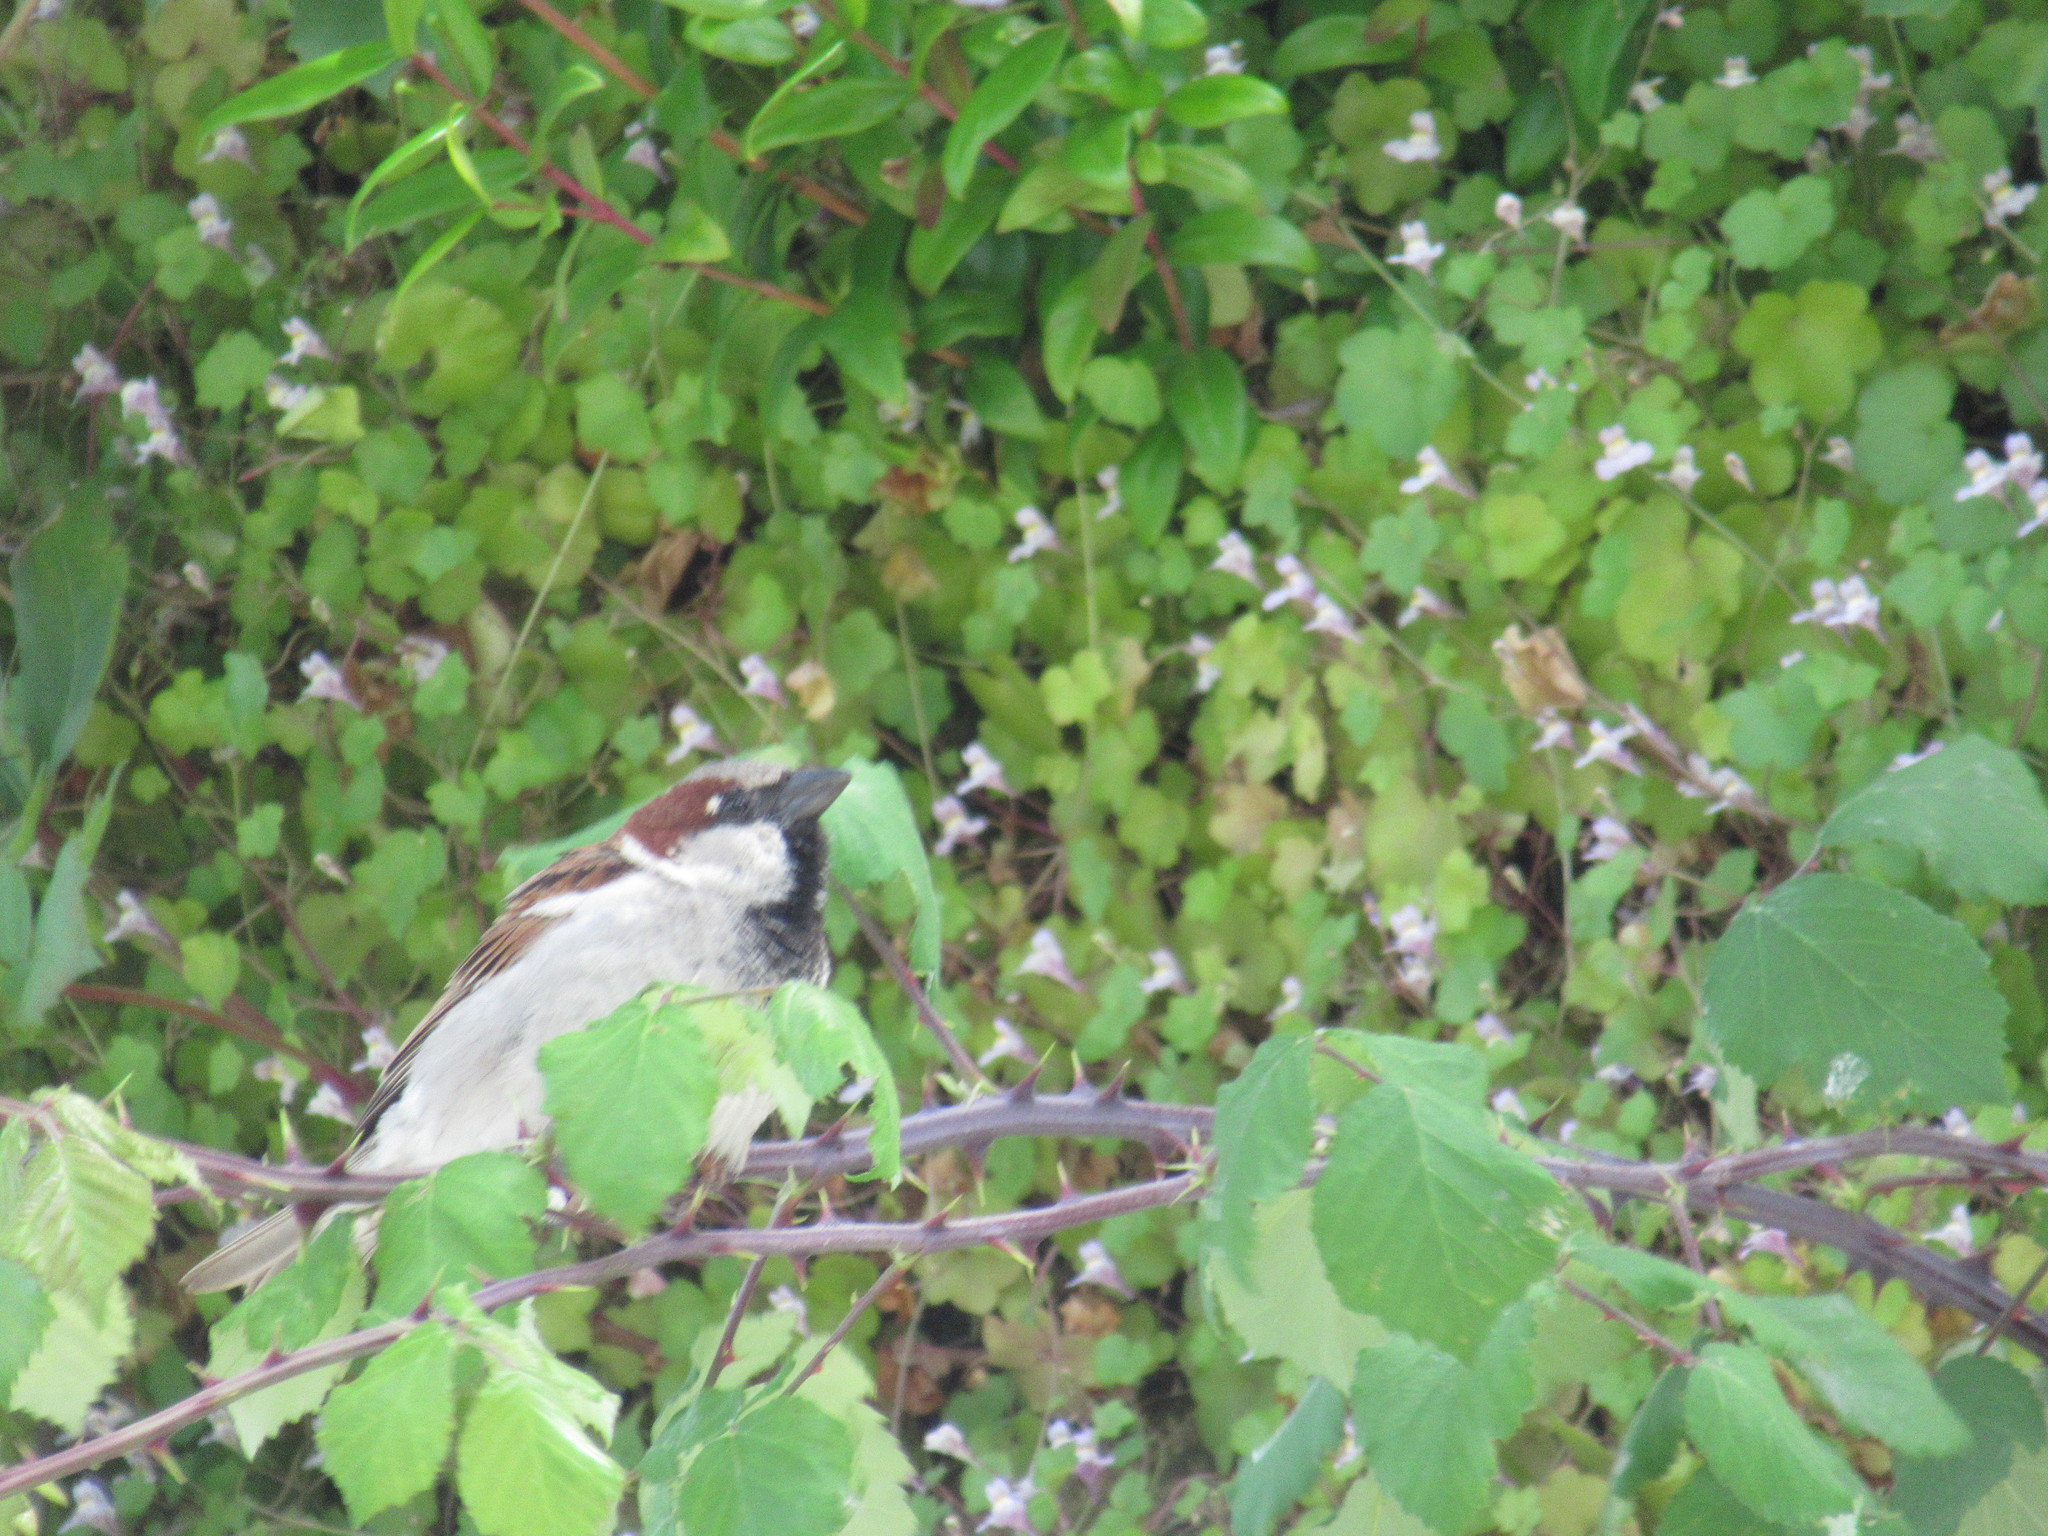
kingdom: Animalia
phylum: Chordata
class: Aves
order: Passeriformes
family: Passeridae
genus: Passer
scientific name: Passer domesticus
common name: House sparrow
